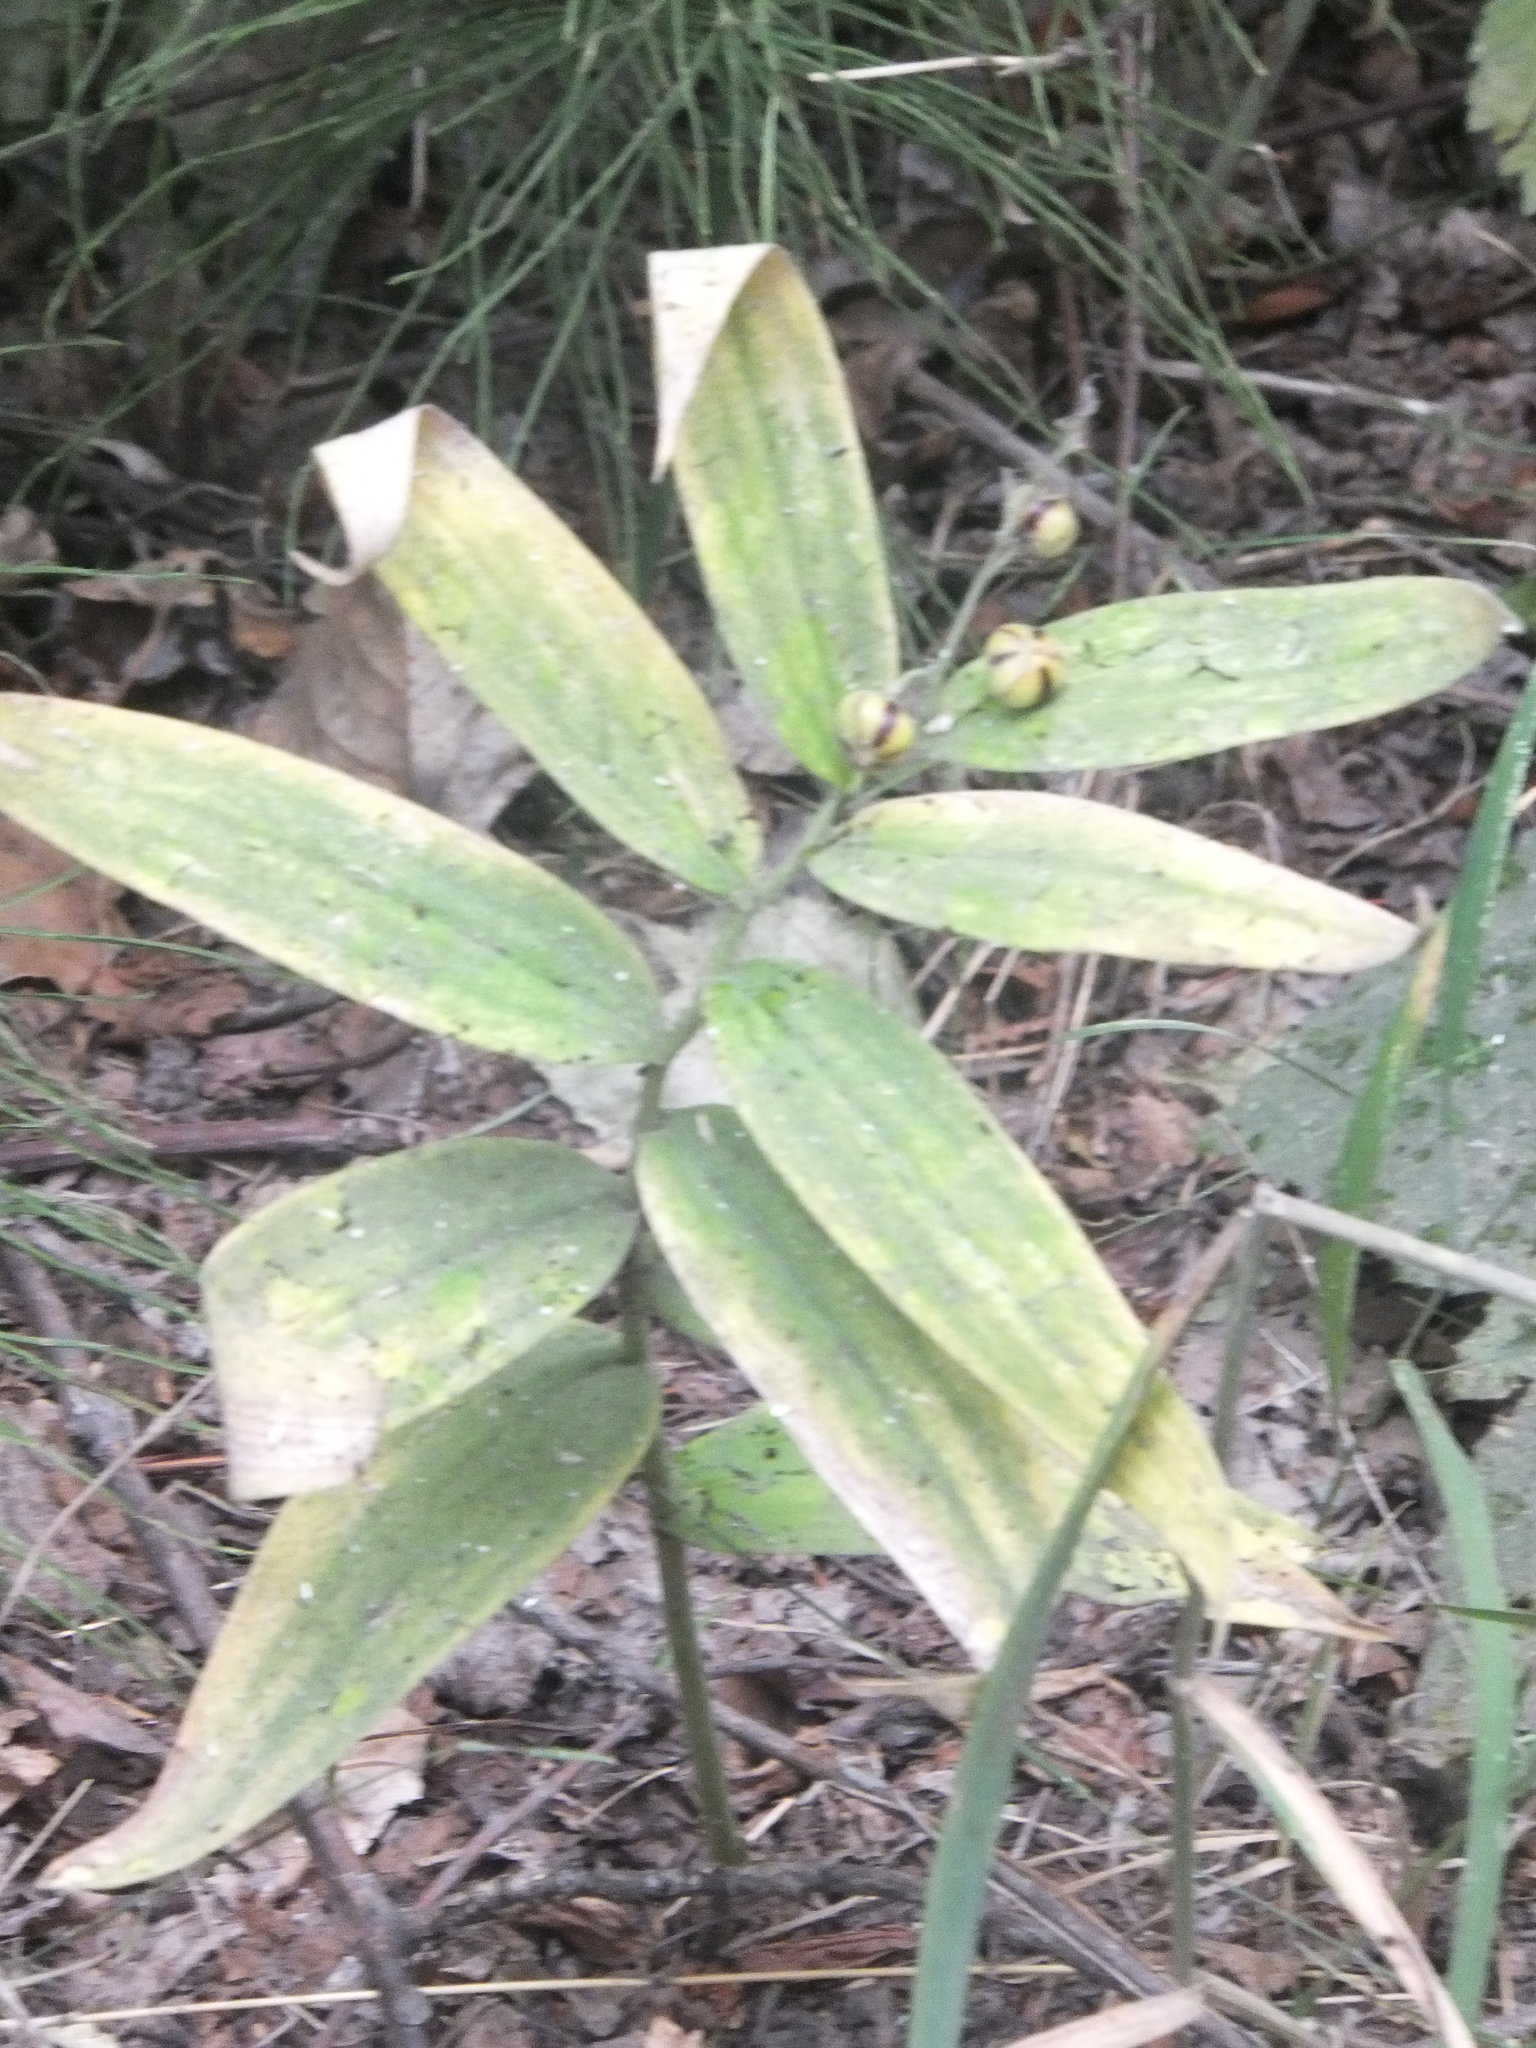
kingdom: Plantae
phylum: Tracheophyta
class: Liliopsida
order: Asparagales
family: Asparagaceae
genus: Maianthemum
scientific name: Maianthemum stellatum
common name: Little false solomon's seal
